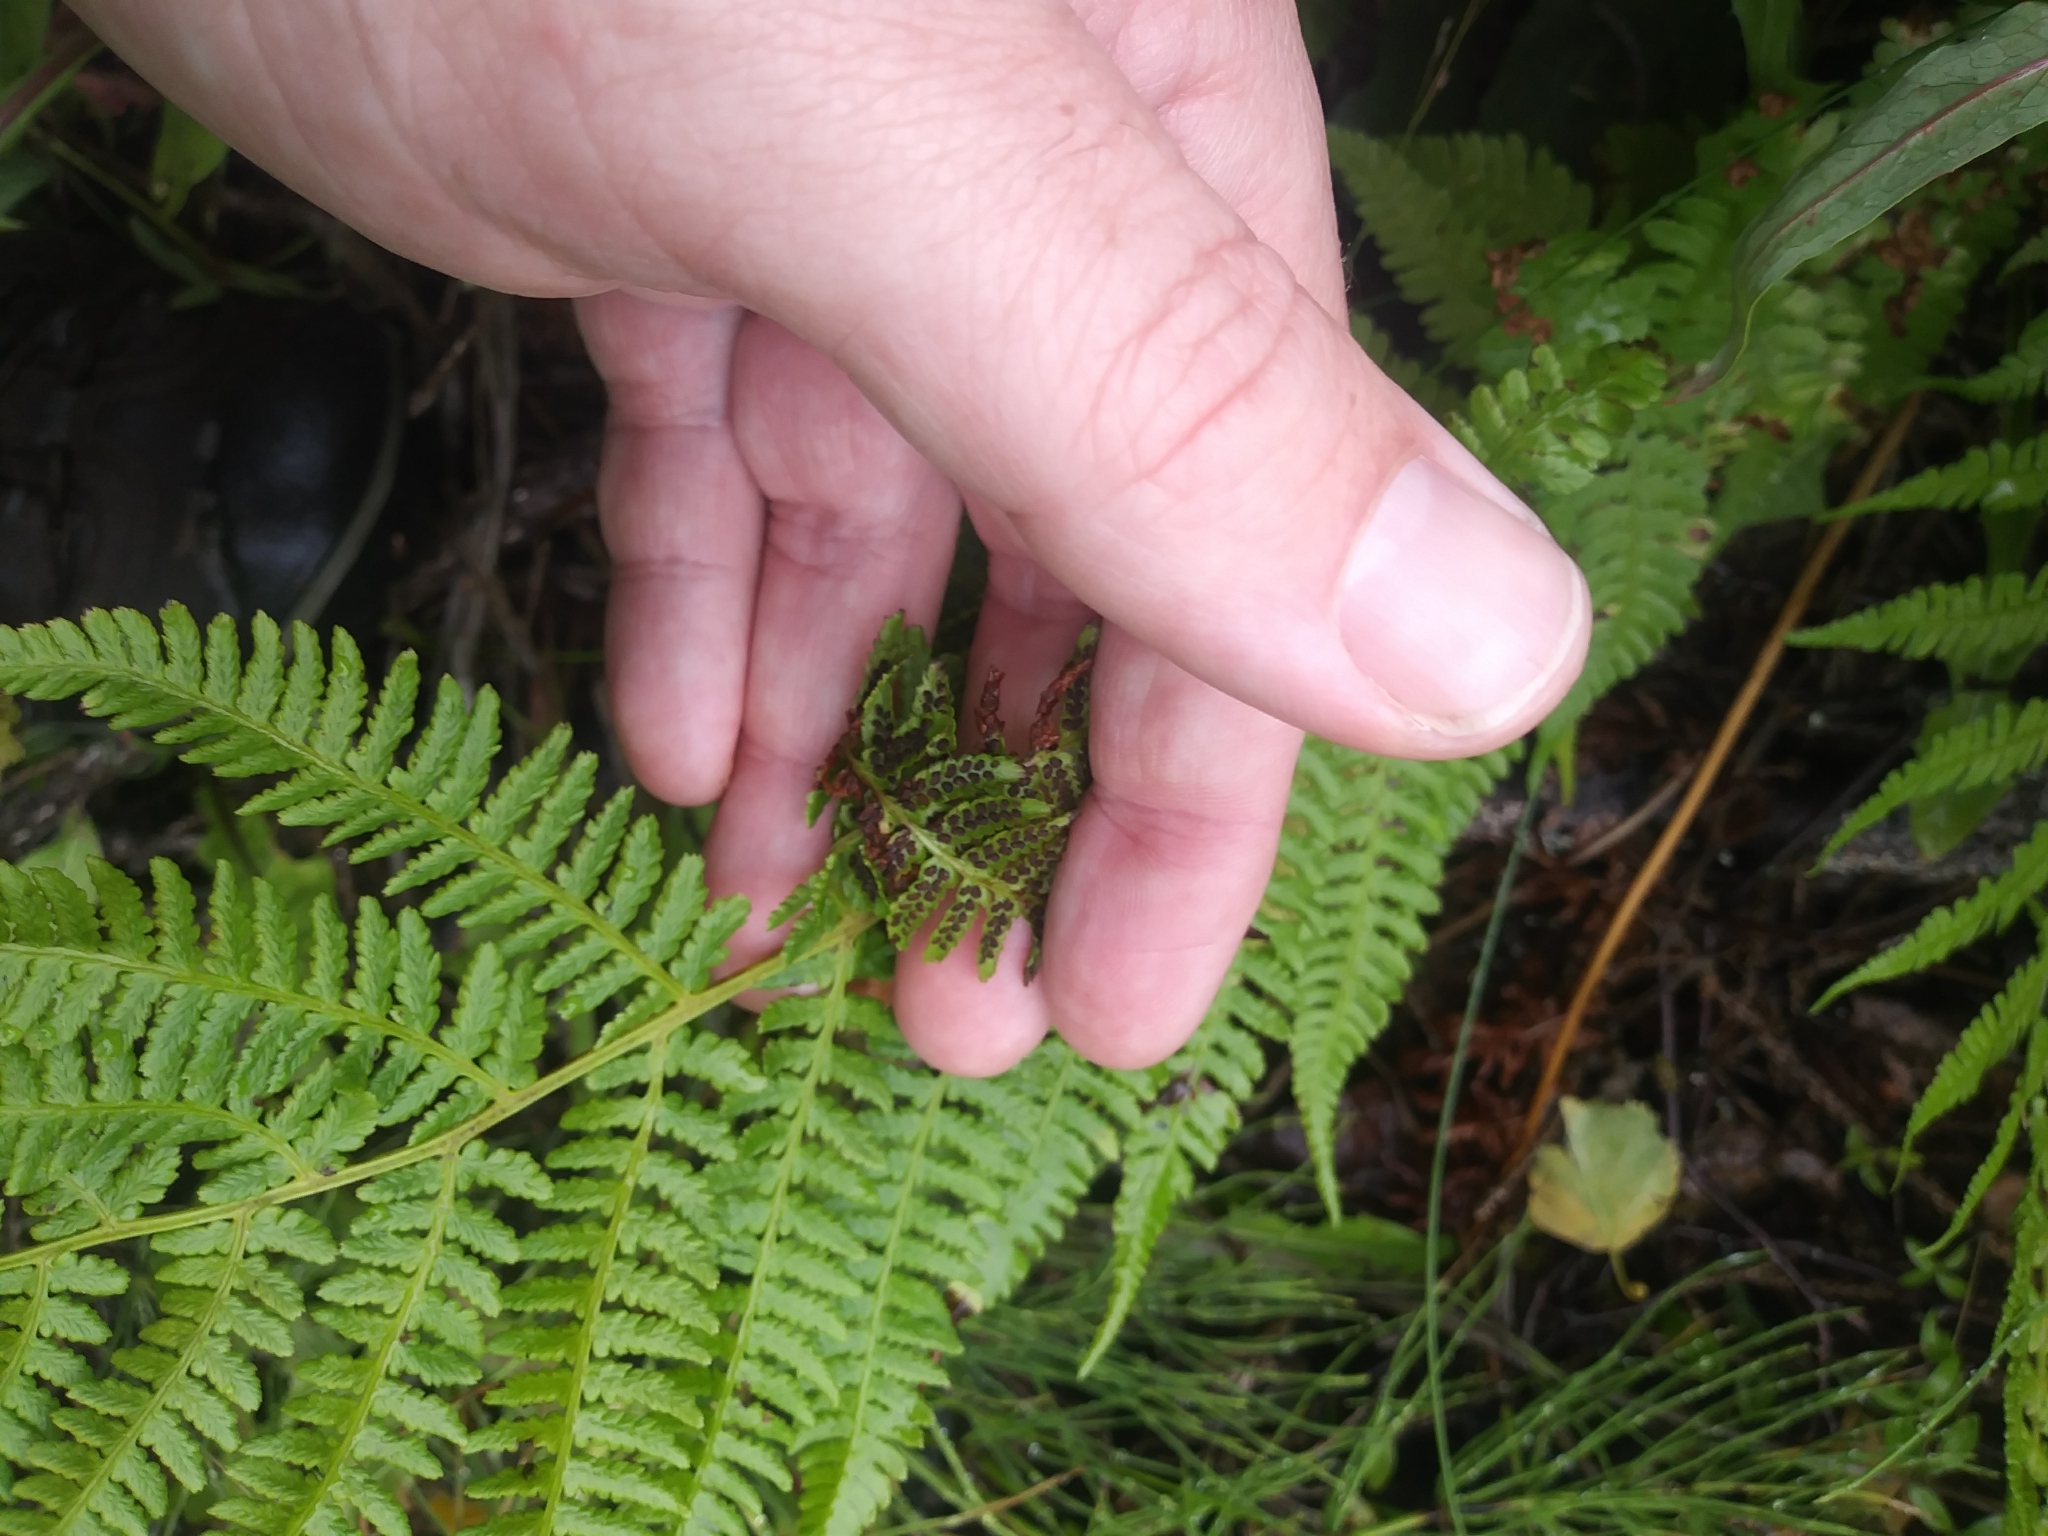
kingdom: Plantae
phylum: Tracheophyta
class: Polypodiopsida
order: Polypodiales
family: Athyriaceae
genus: Athyrium
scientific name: Athyrium cyclosorum
